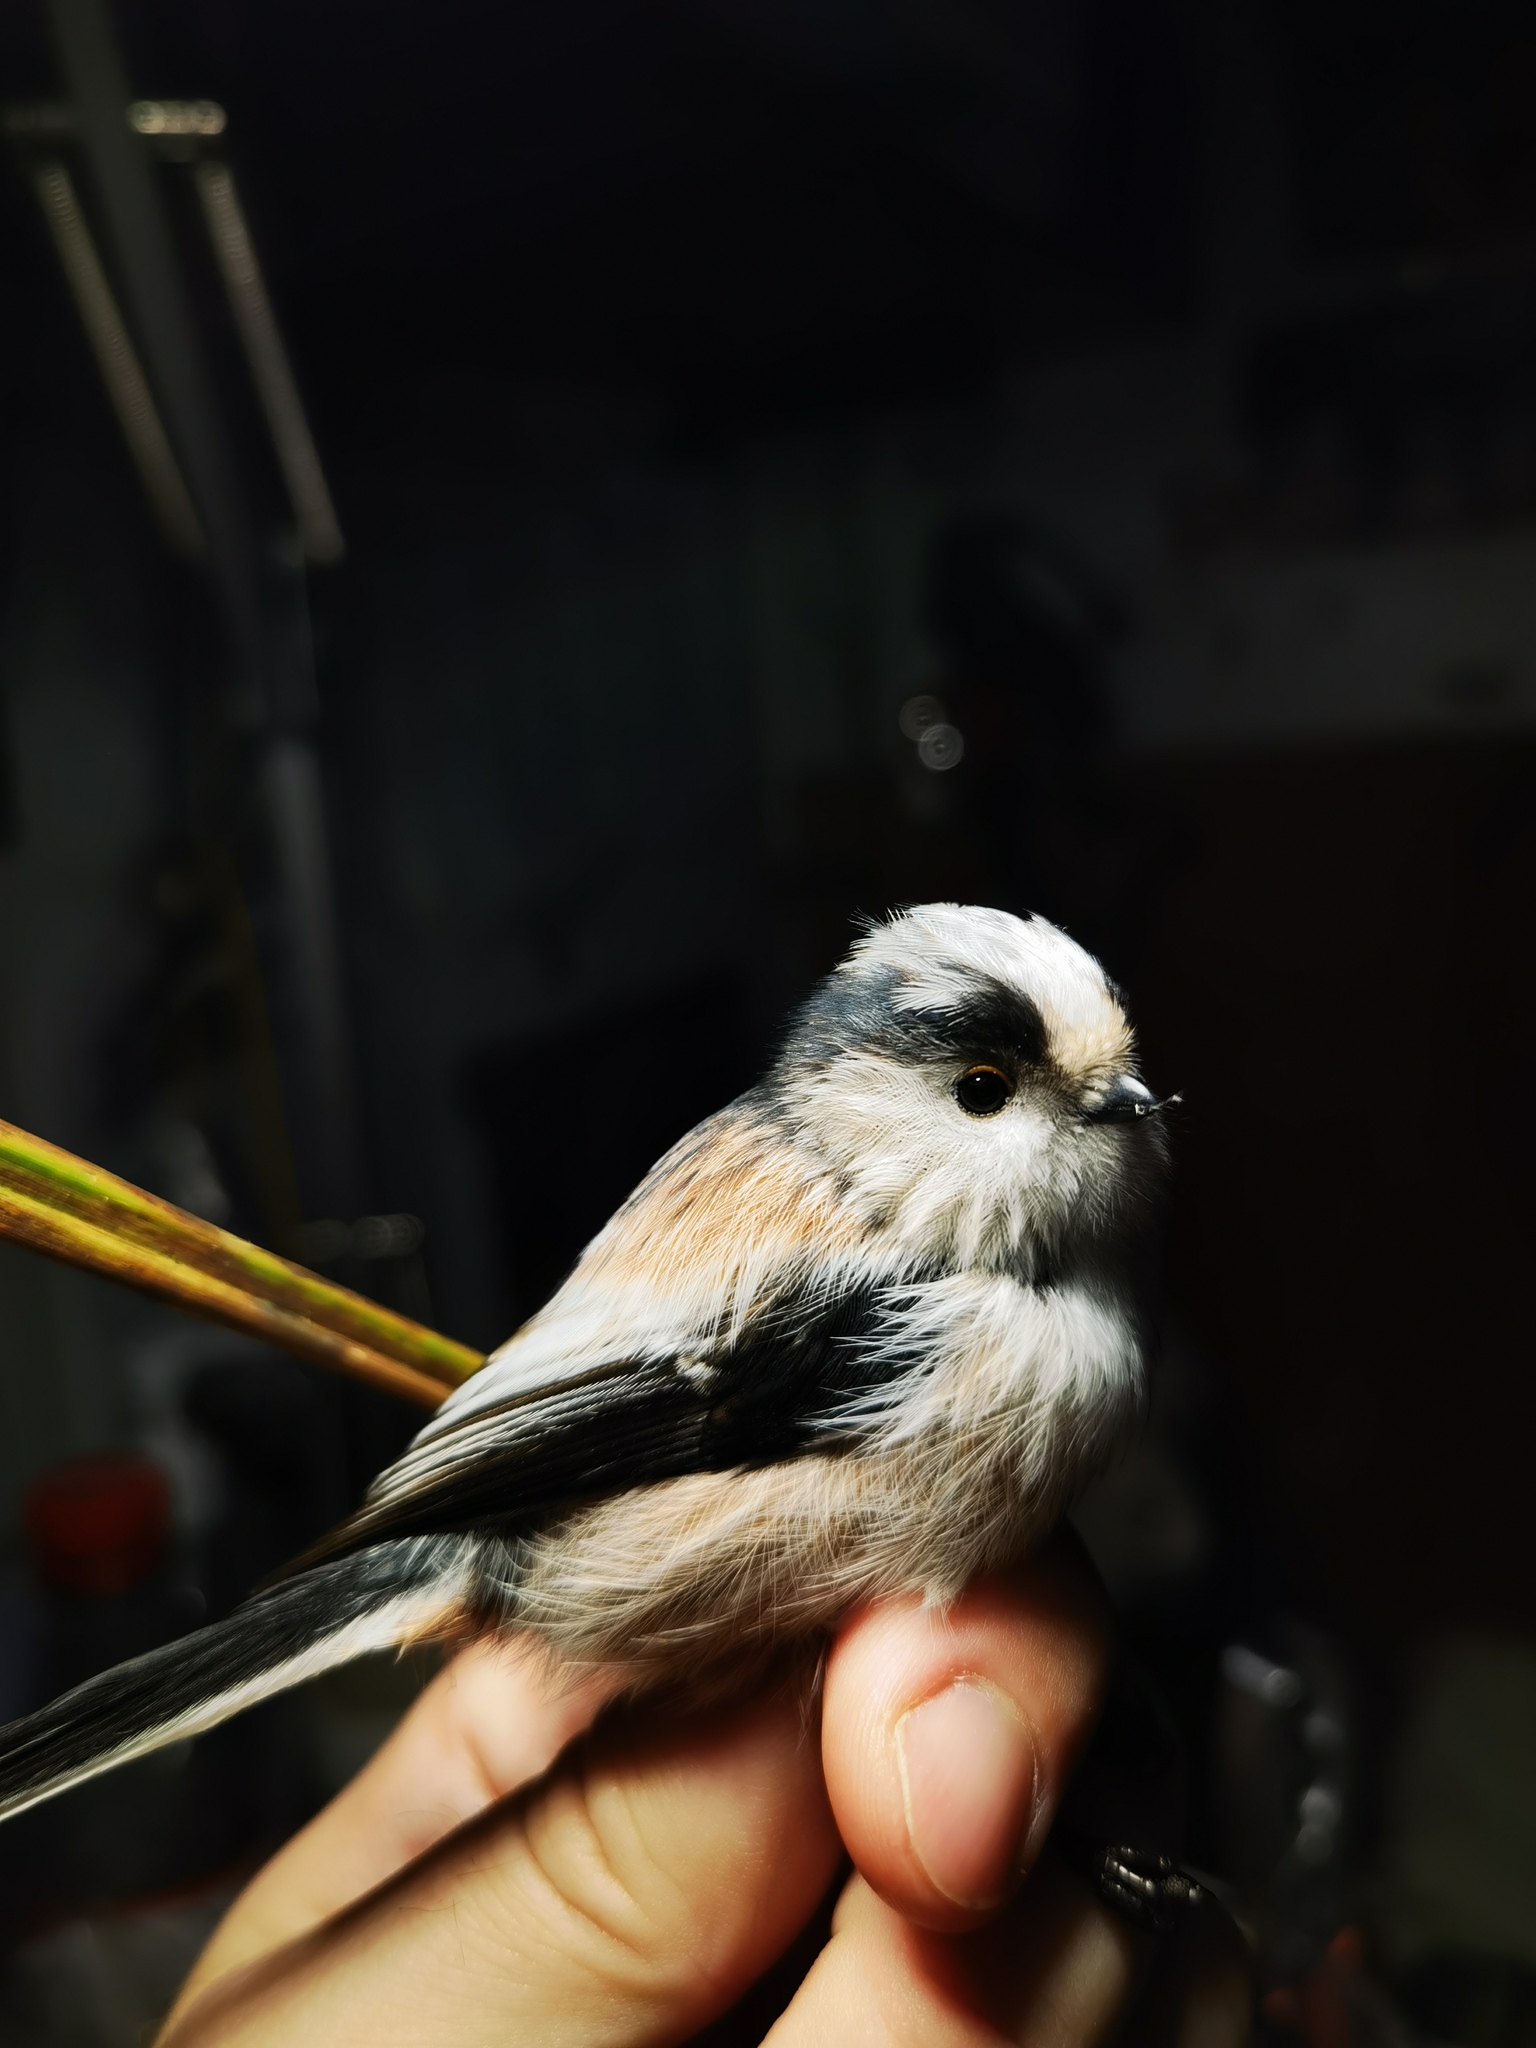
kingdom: Animalia
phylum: Chordata
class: Aves
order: Passeriformes
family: Aegithalidae
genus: Aegithalos
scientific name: Aegithalos caudatus
